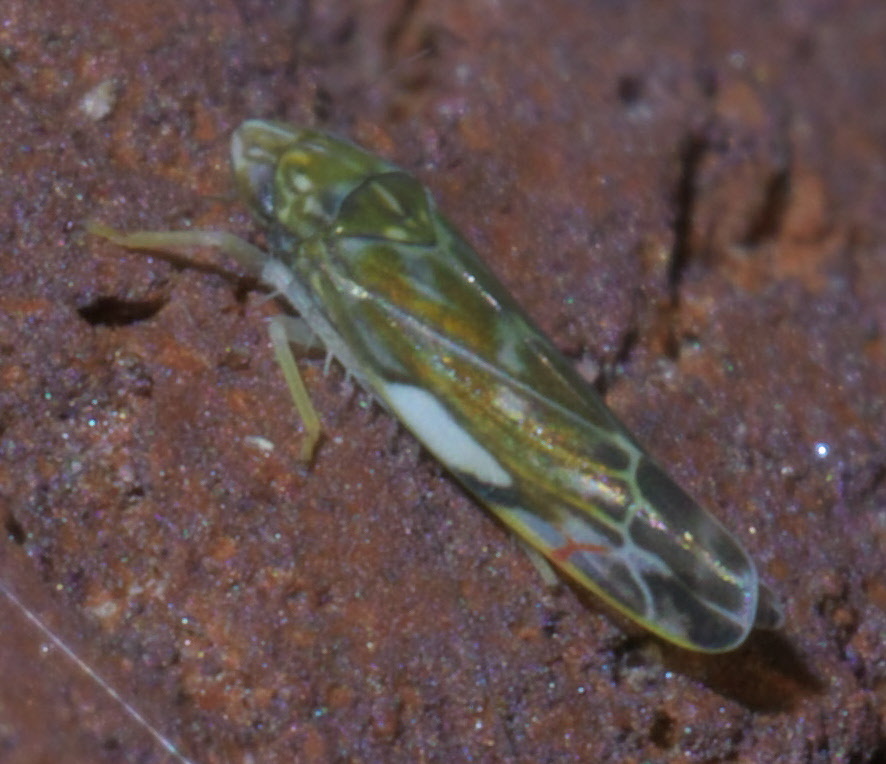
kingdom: Animalia
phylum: Arthropoda
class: Insecta
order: Hemiptera
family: Cicadellidae
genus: Erasmoneura
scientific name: Erasmoneura vulnerata
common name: The wounded leafhopper
